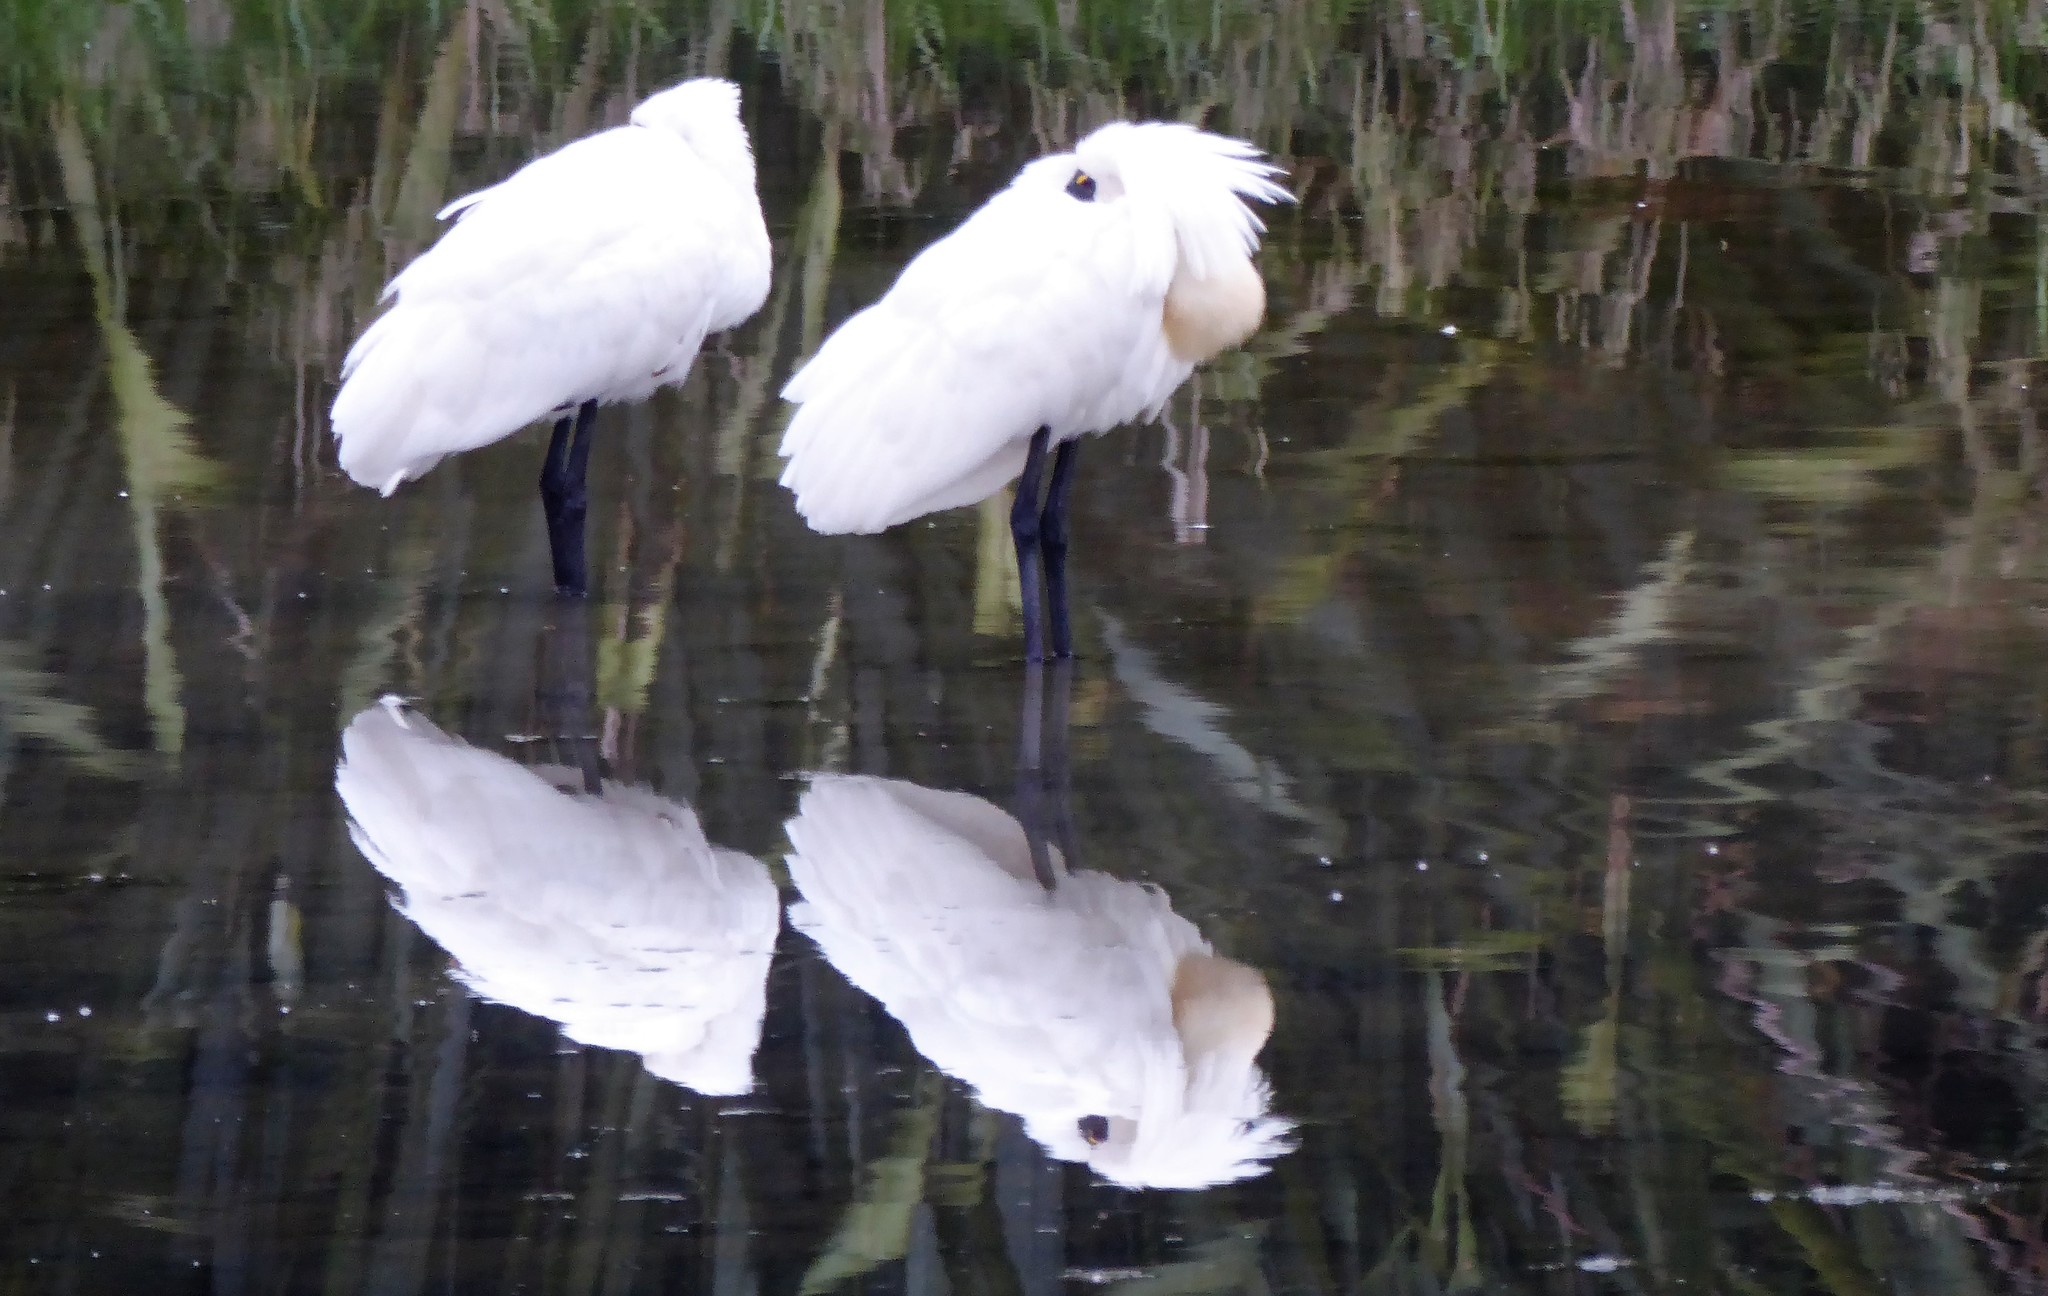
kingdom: Animalia
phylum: Chordata
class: Aves
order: Pelecaniformes
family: Threskiornithidae
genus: Platalea
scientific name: Platalea regia
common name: Royal spoonbill
